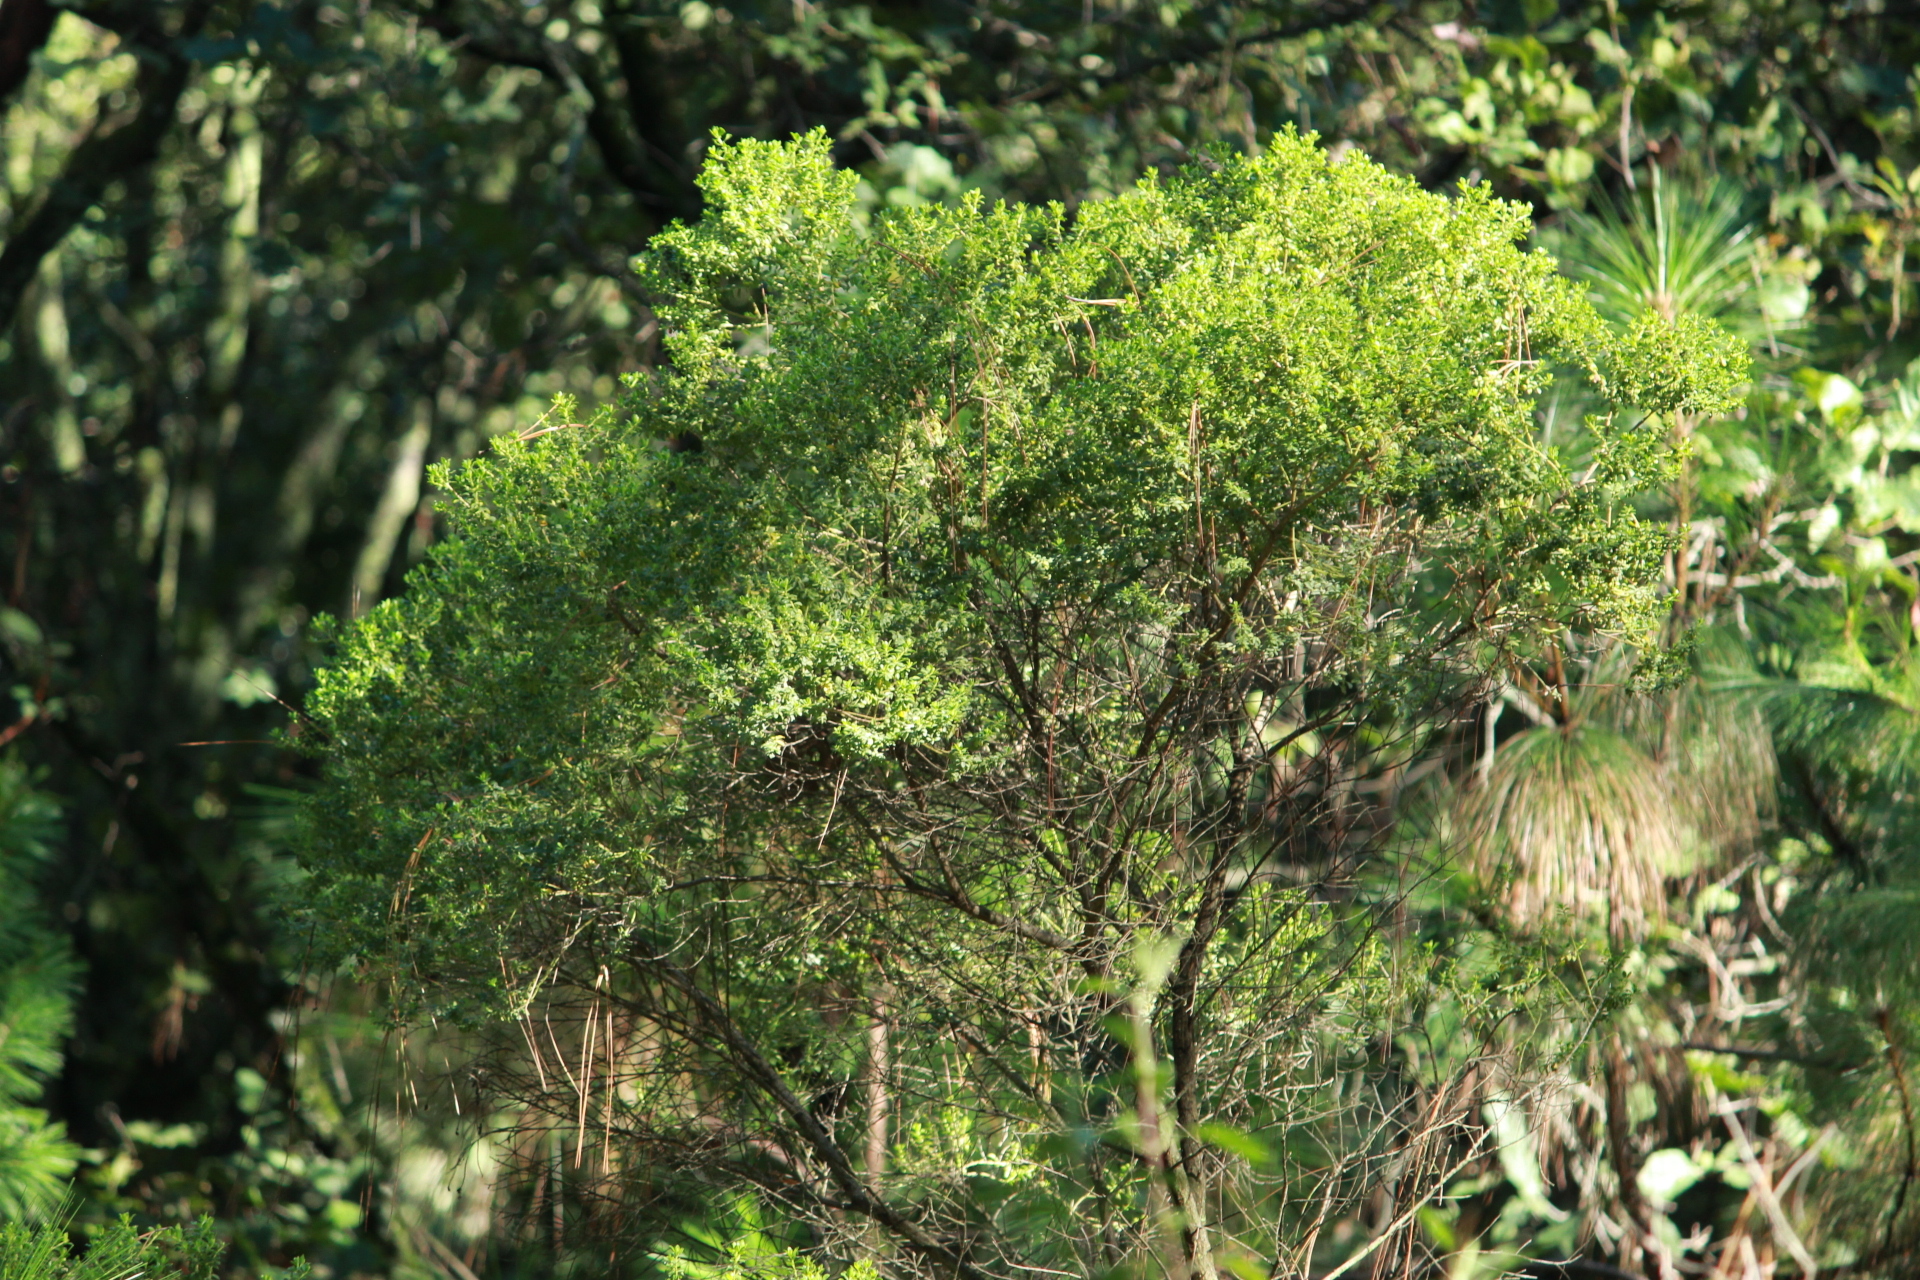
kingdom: Plantae
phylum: Tracheophyta
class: Magnoliopsida
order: Asterales
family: Asteraceae
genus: Baccharis
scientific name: Baccharis conferta
